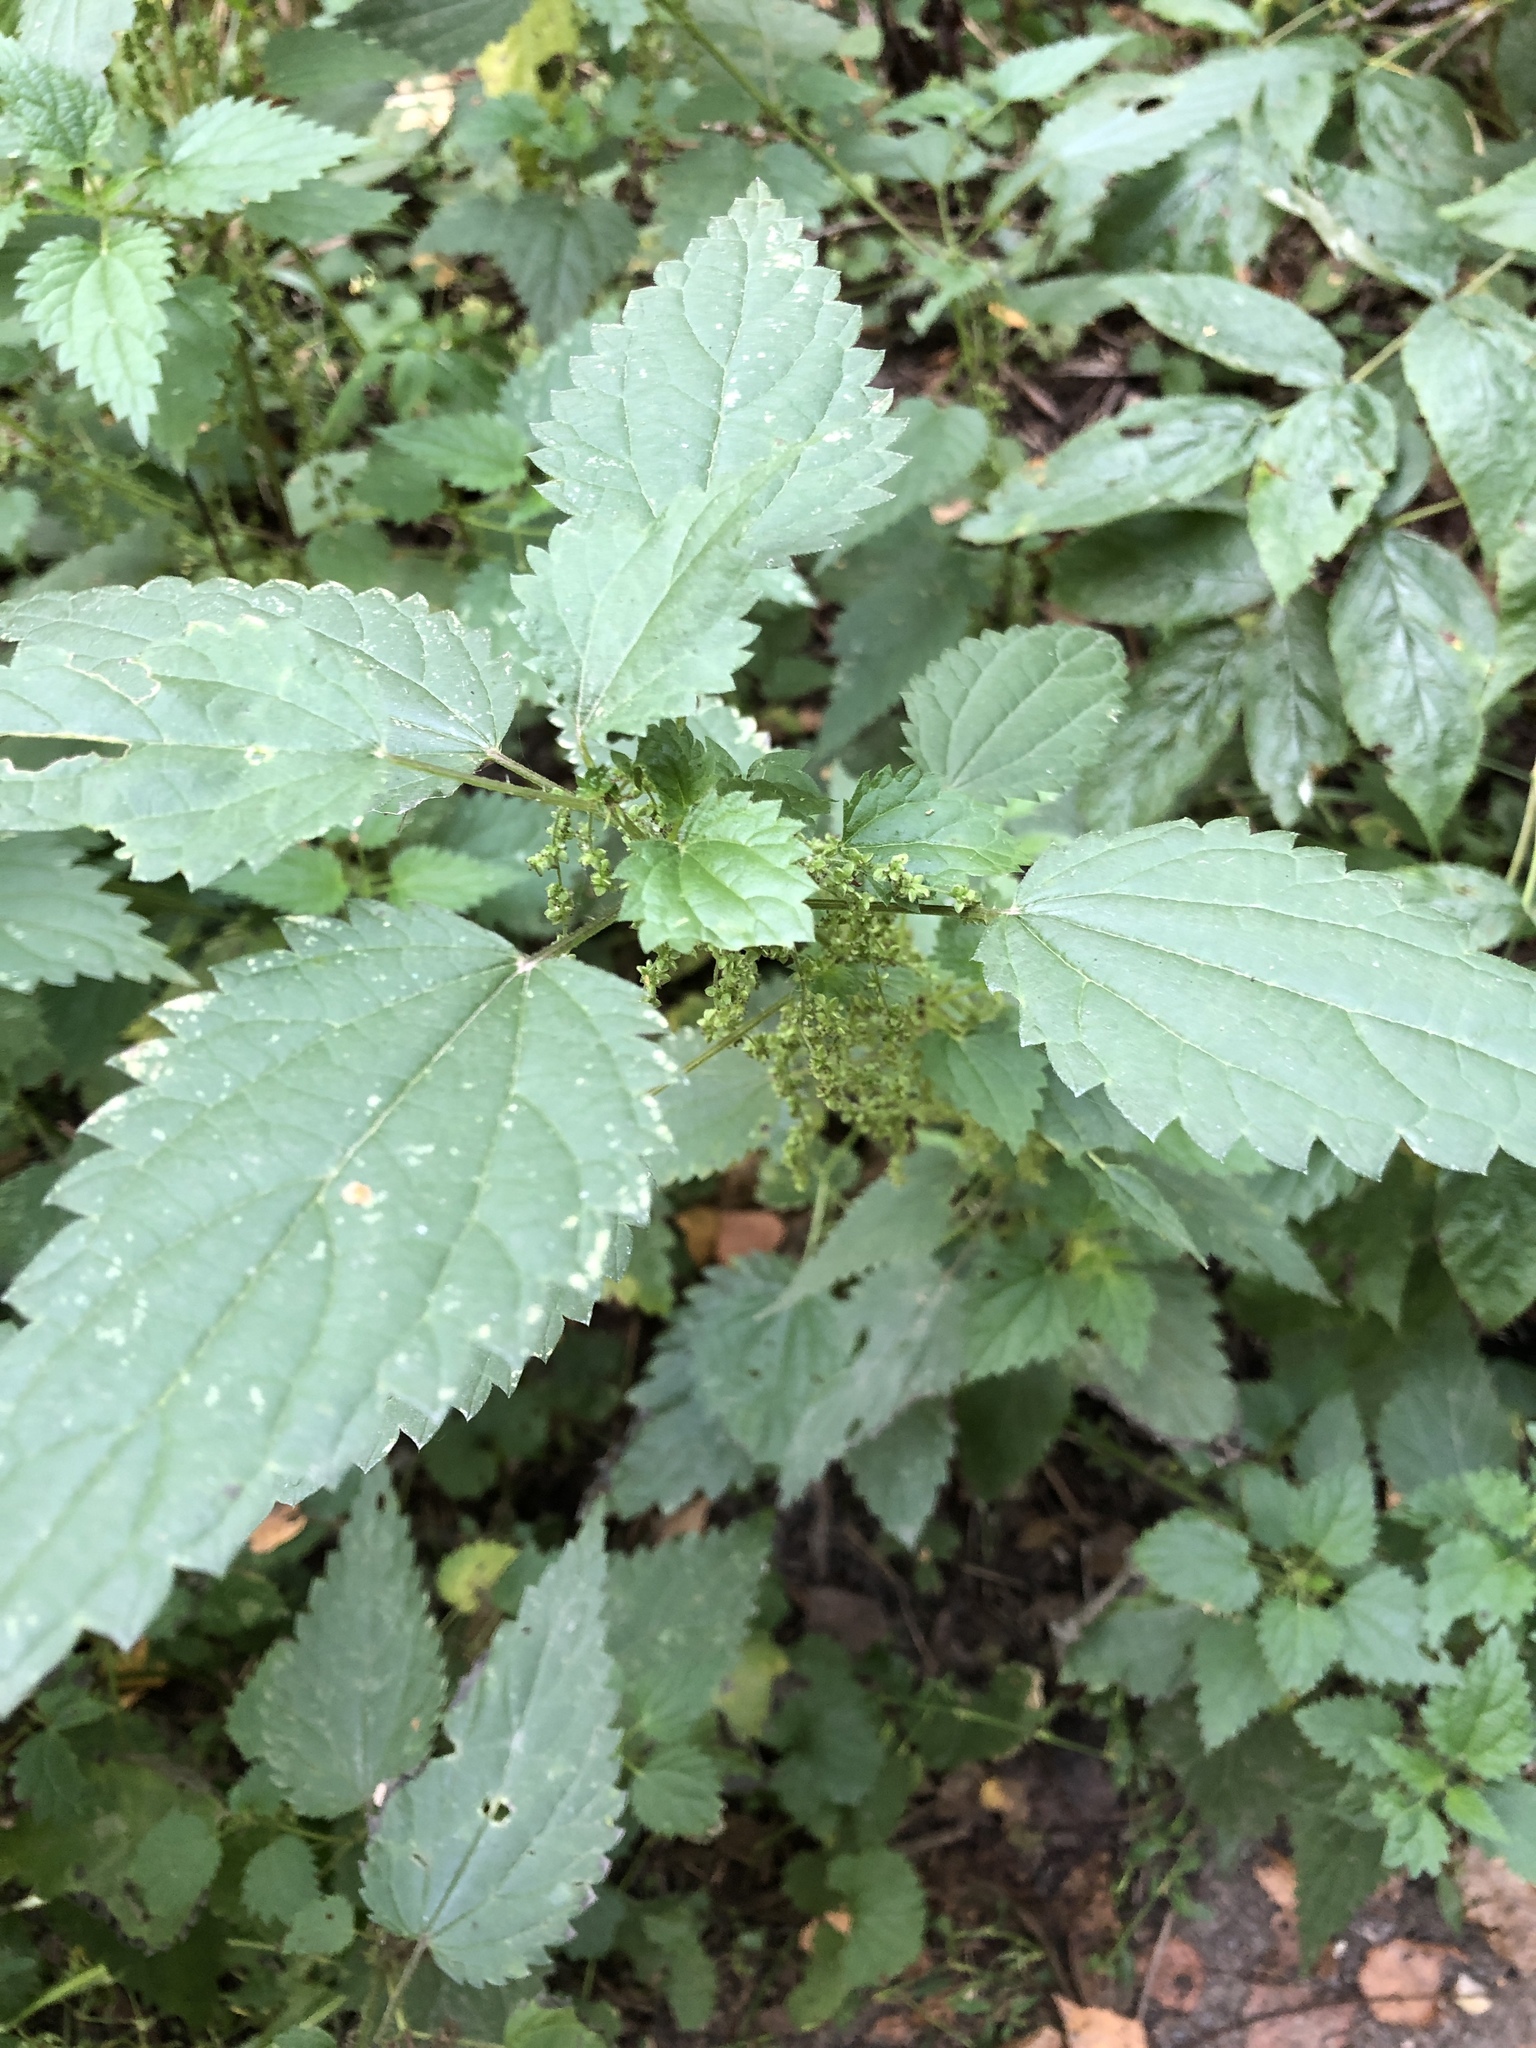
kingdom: Plantae
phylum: Tracheophyta
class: Magnoliopsida
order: Rosales
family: Urticaceae
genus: Urtica
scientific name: Urtica dioica
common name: Common nettle
